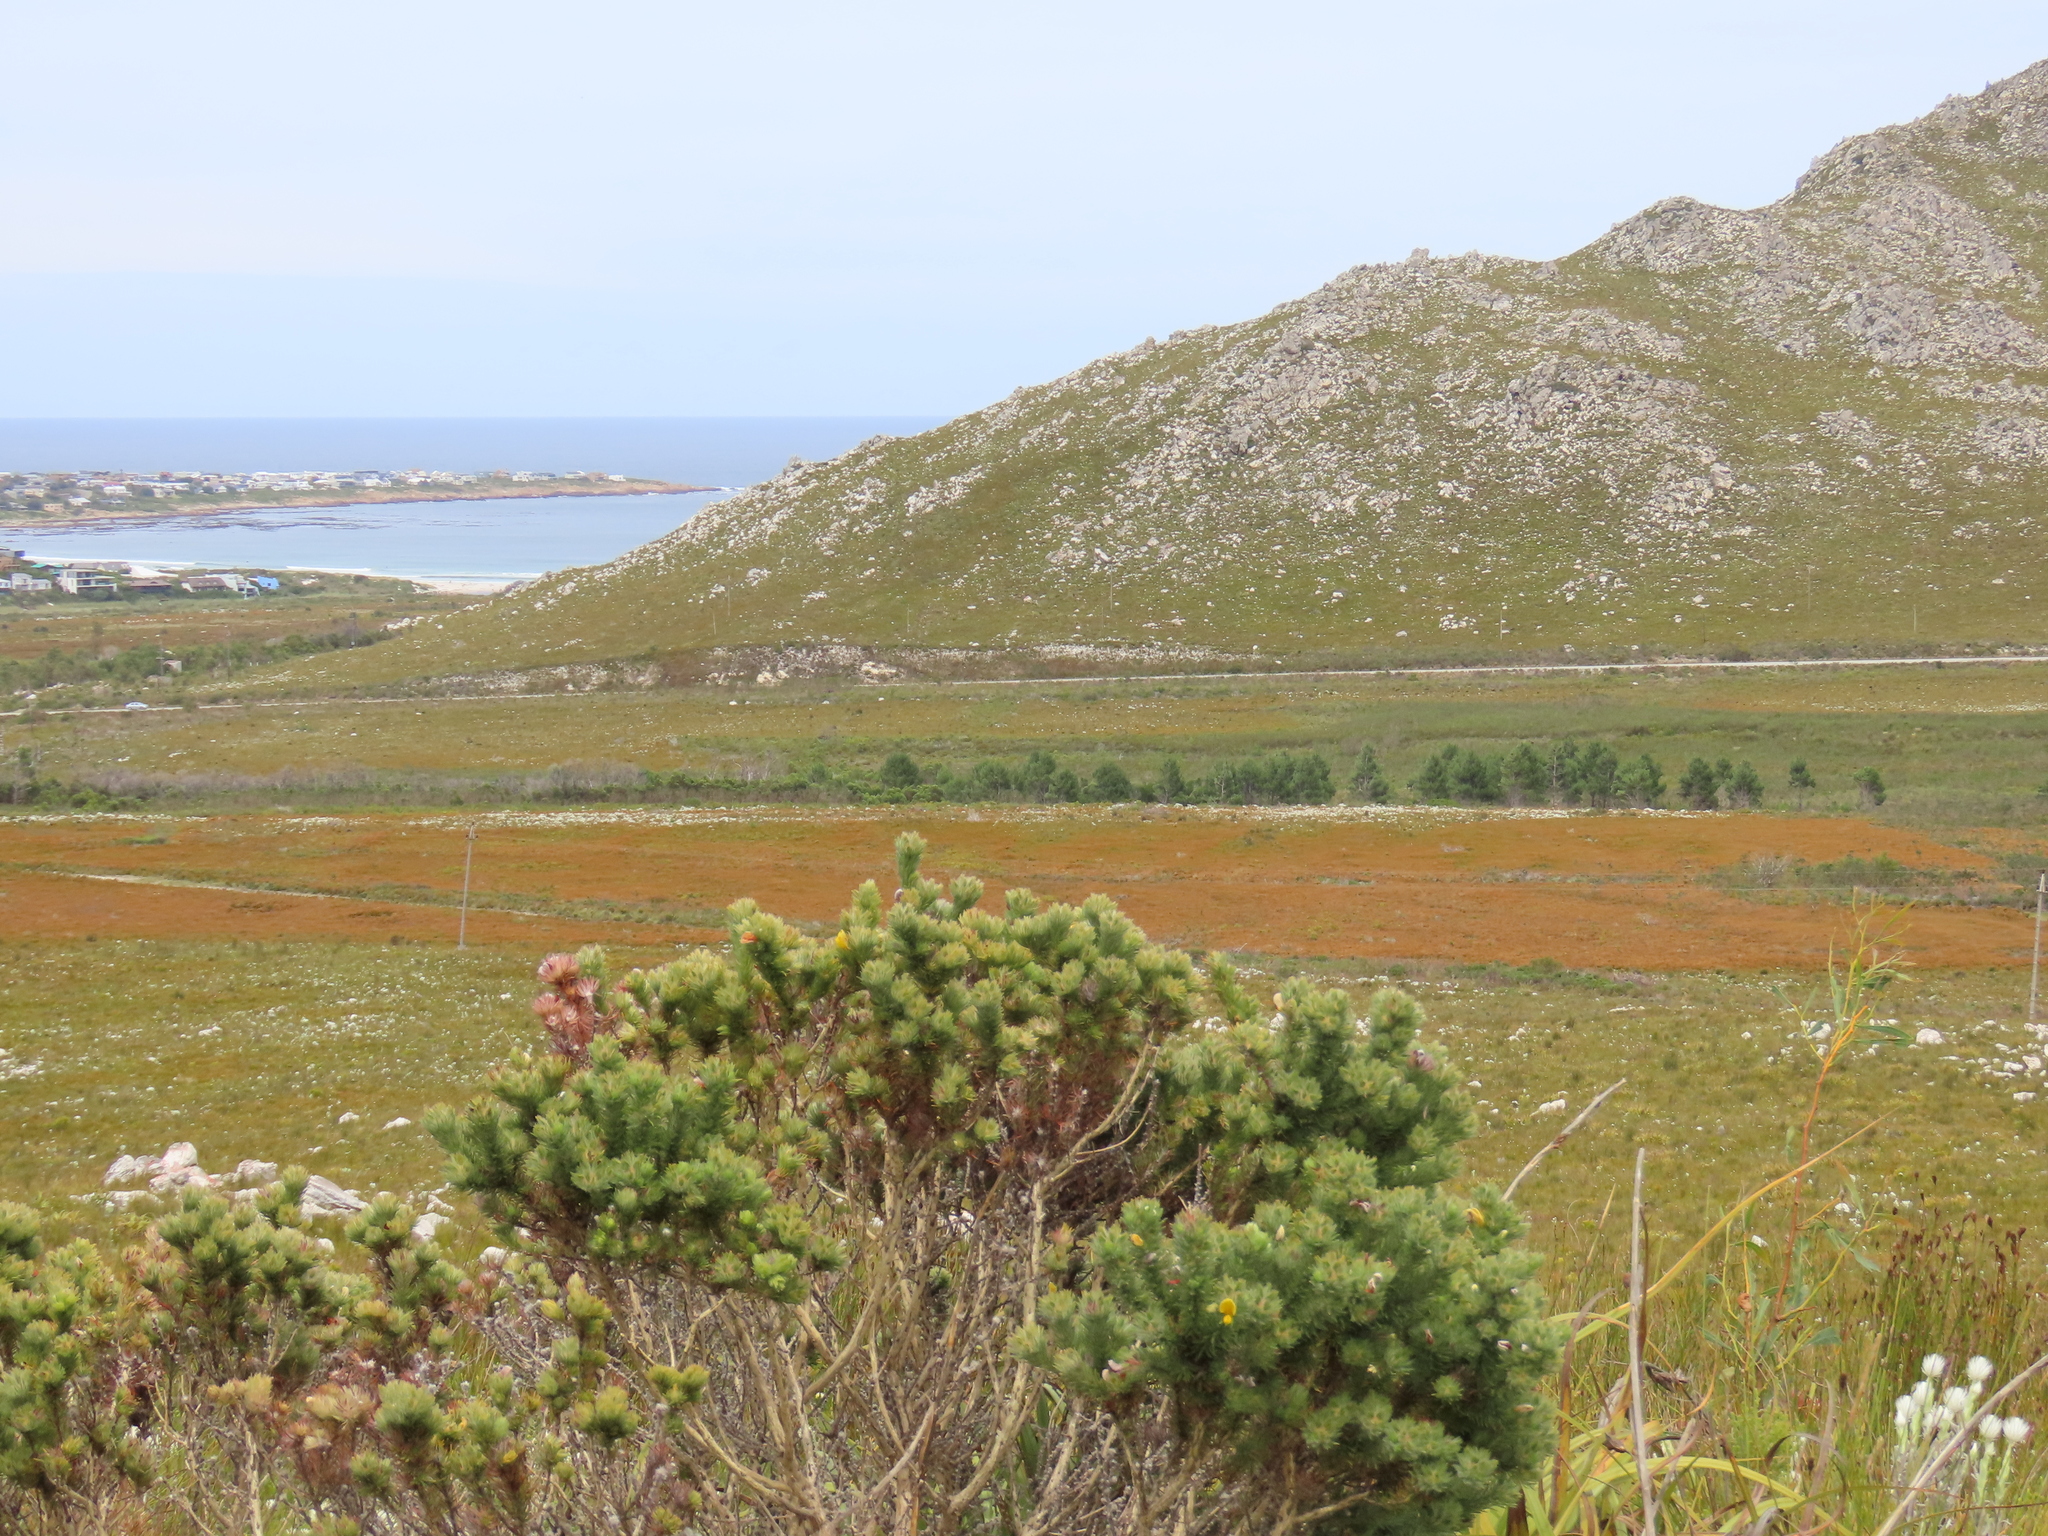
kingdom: Plantae
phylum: Tracheophyta
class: Magnoliopsida
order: Fabales
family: Fabaceae
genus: Aspalathus
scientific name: Aspalathus ciliaris
